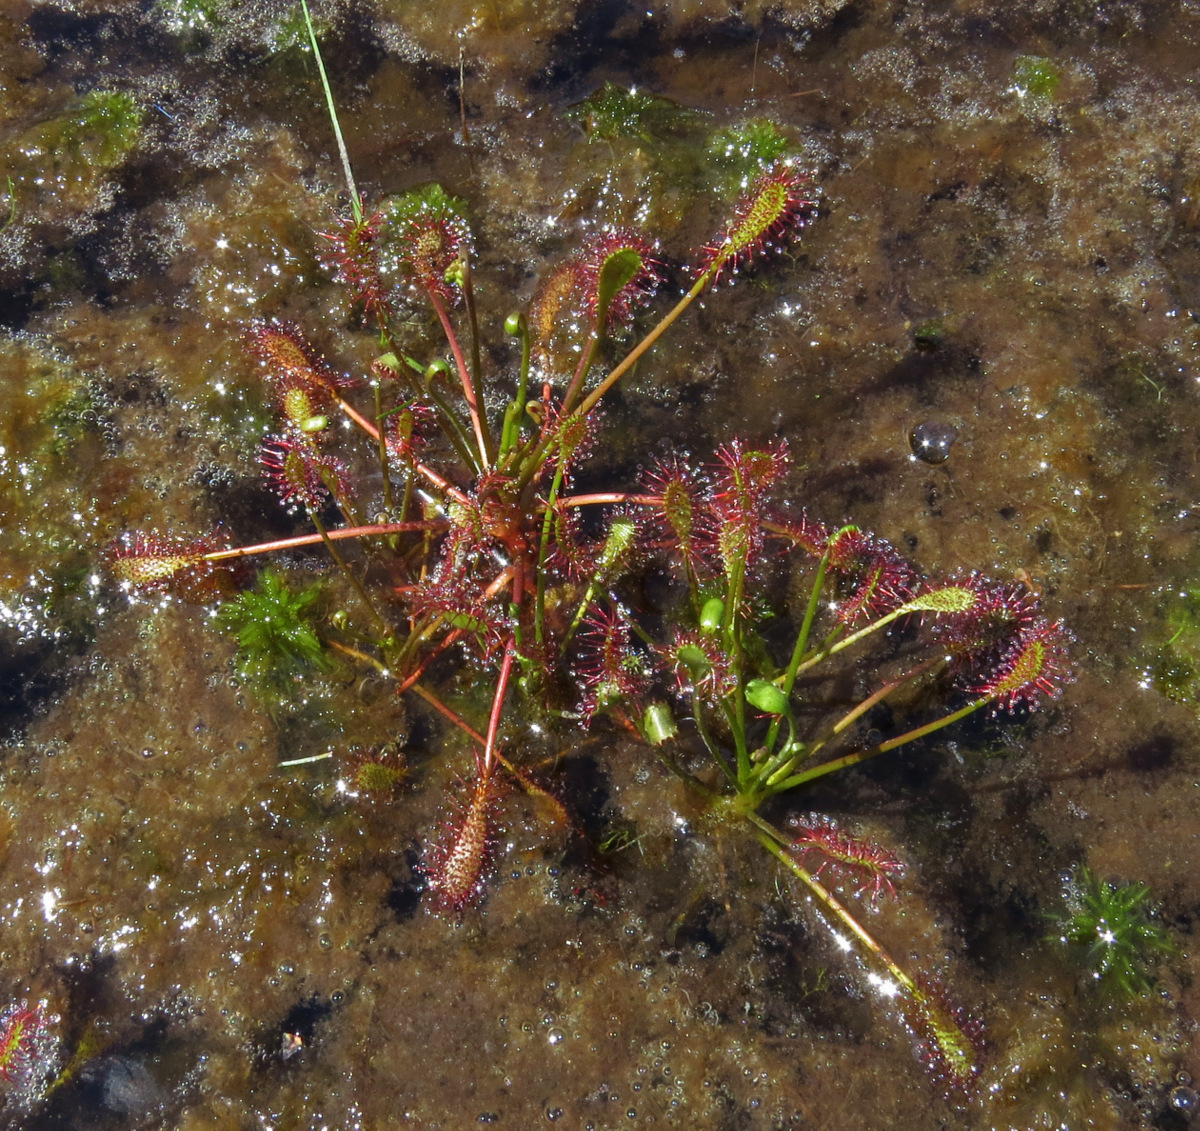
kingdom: Plantae
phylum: Tracheophyta
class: Magnoliopsida
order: Caryophyllales
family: Droseraceae
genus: Drosera
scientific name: Drosera intermedia
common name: Oblong-leaved sundew
